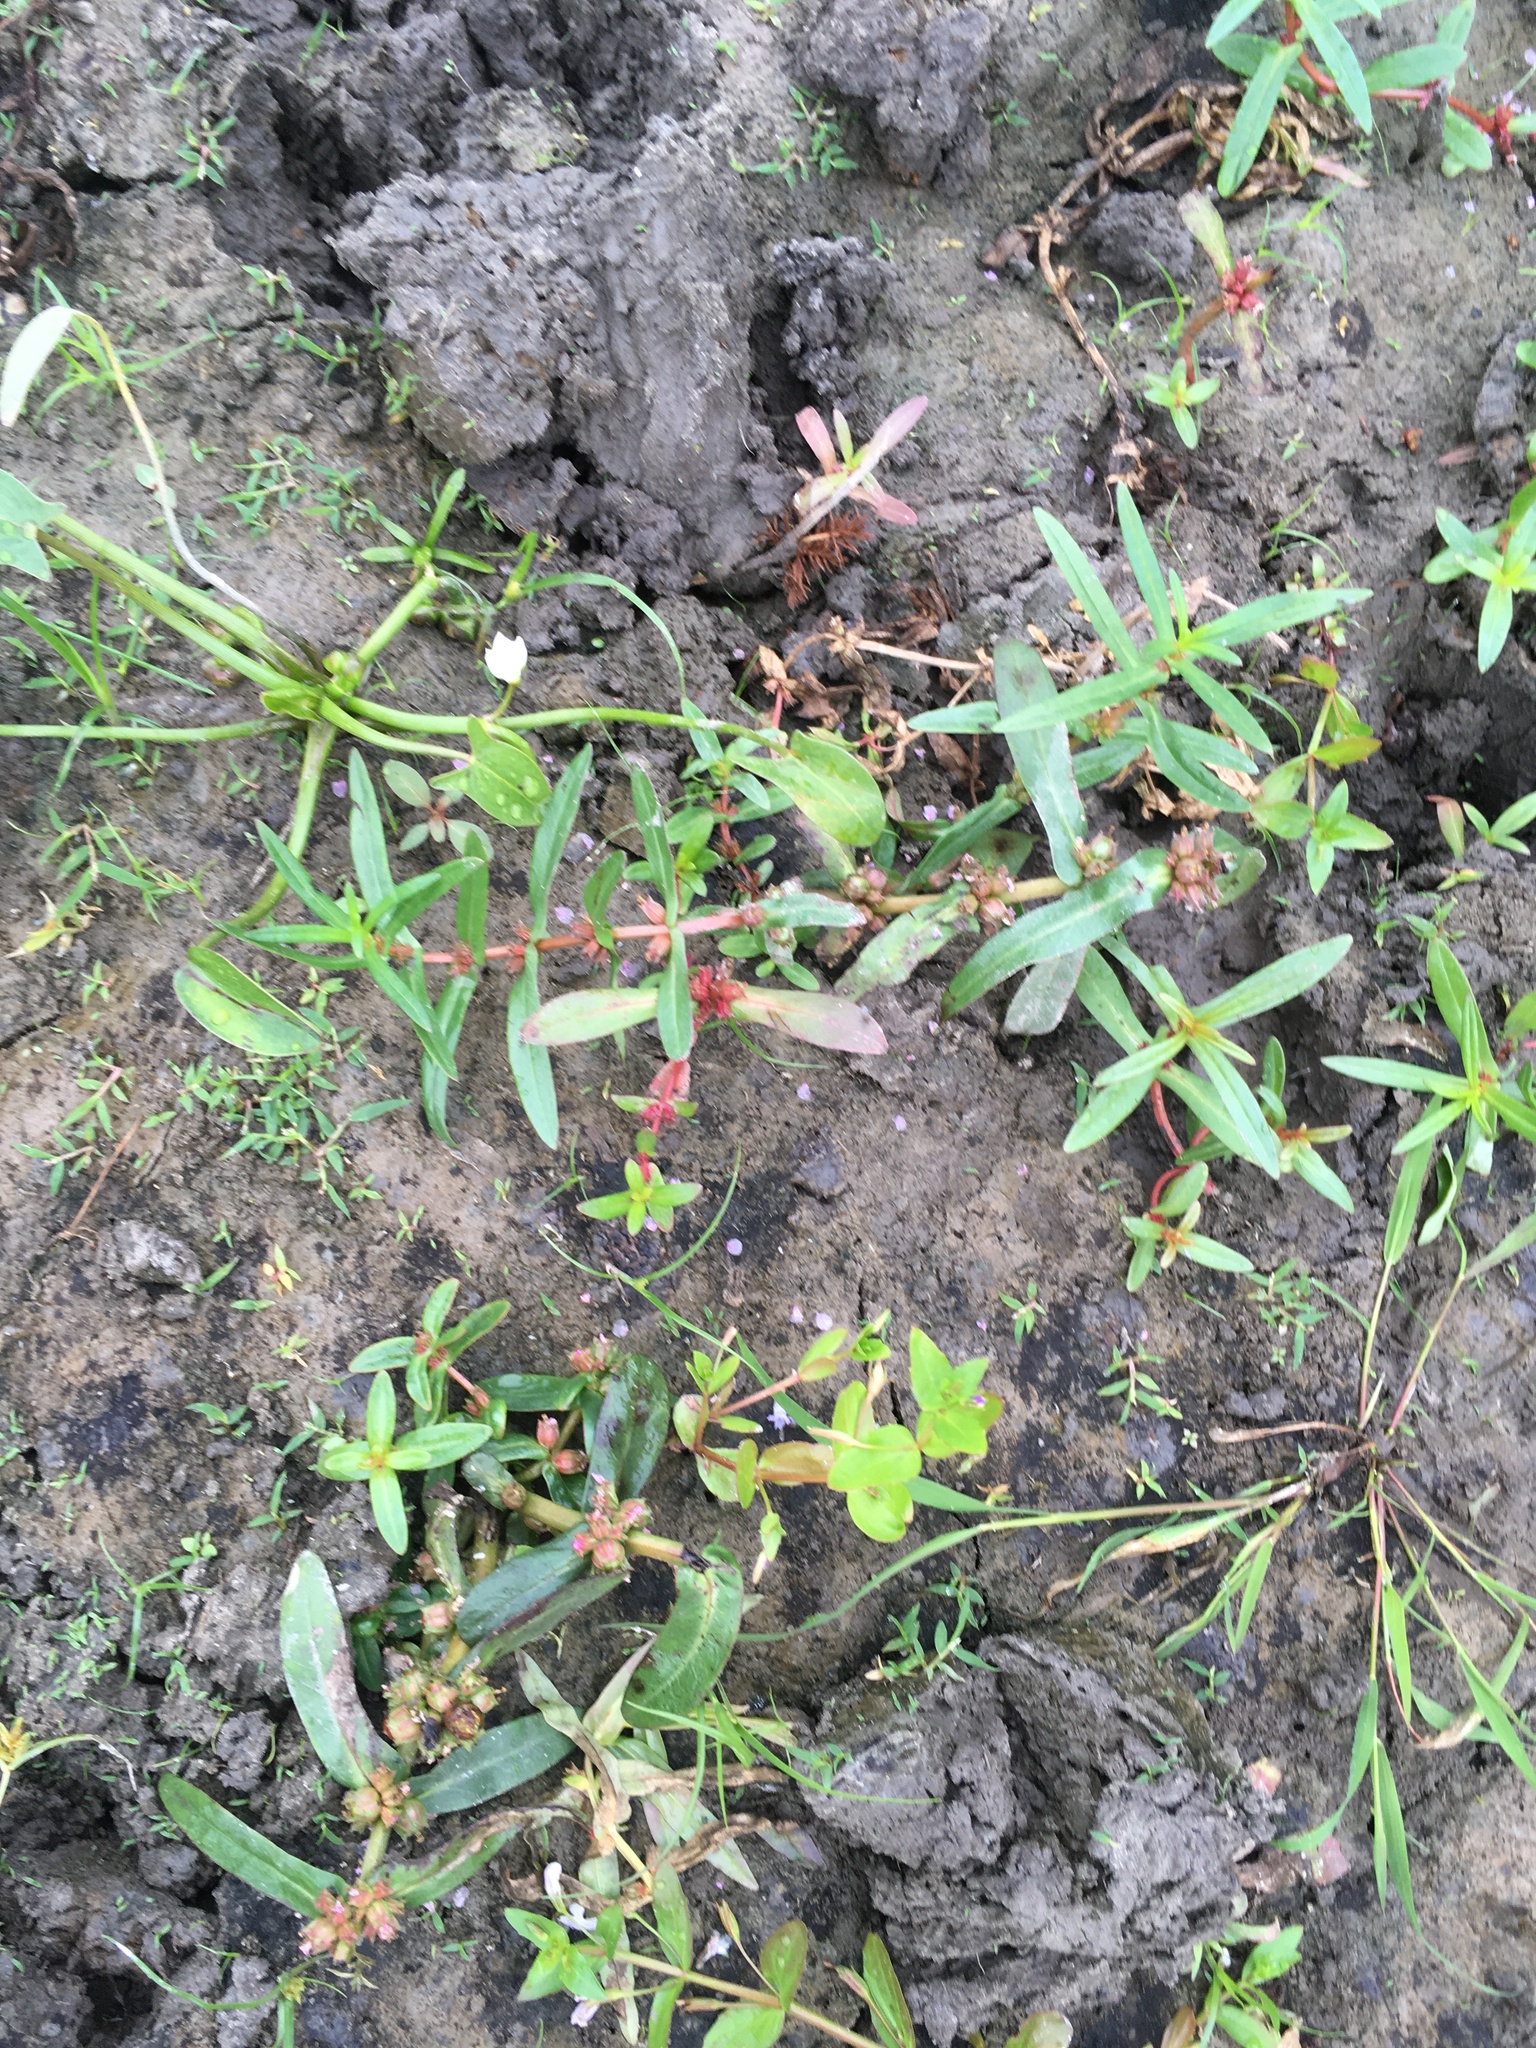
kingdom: Plantae
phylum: Tracheophyta
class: Magnoliopsida
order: Myrtales
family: Lythraceae
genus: Ammannia
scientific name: Ammannia robusta
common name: Grand ammannia
